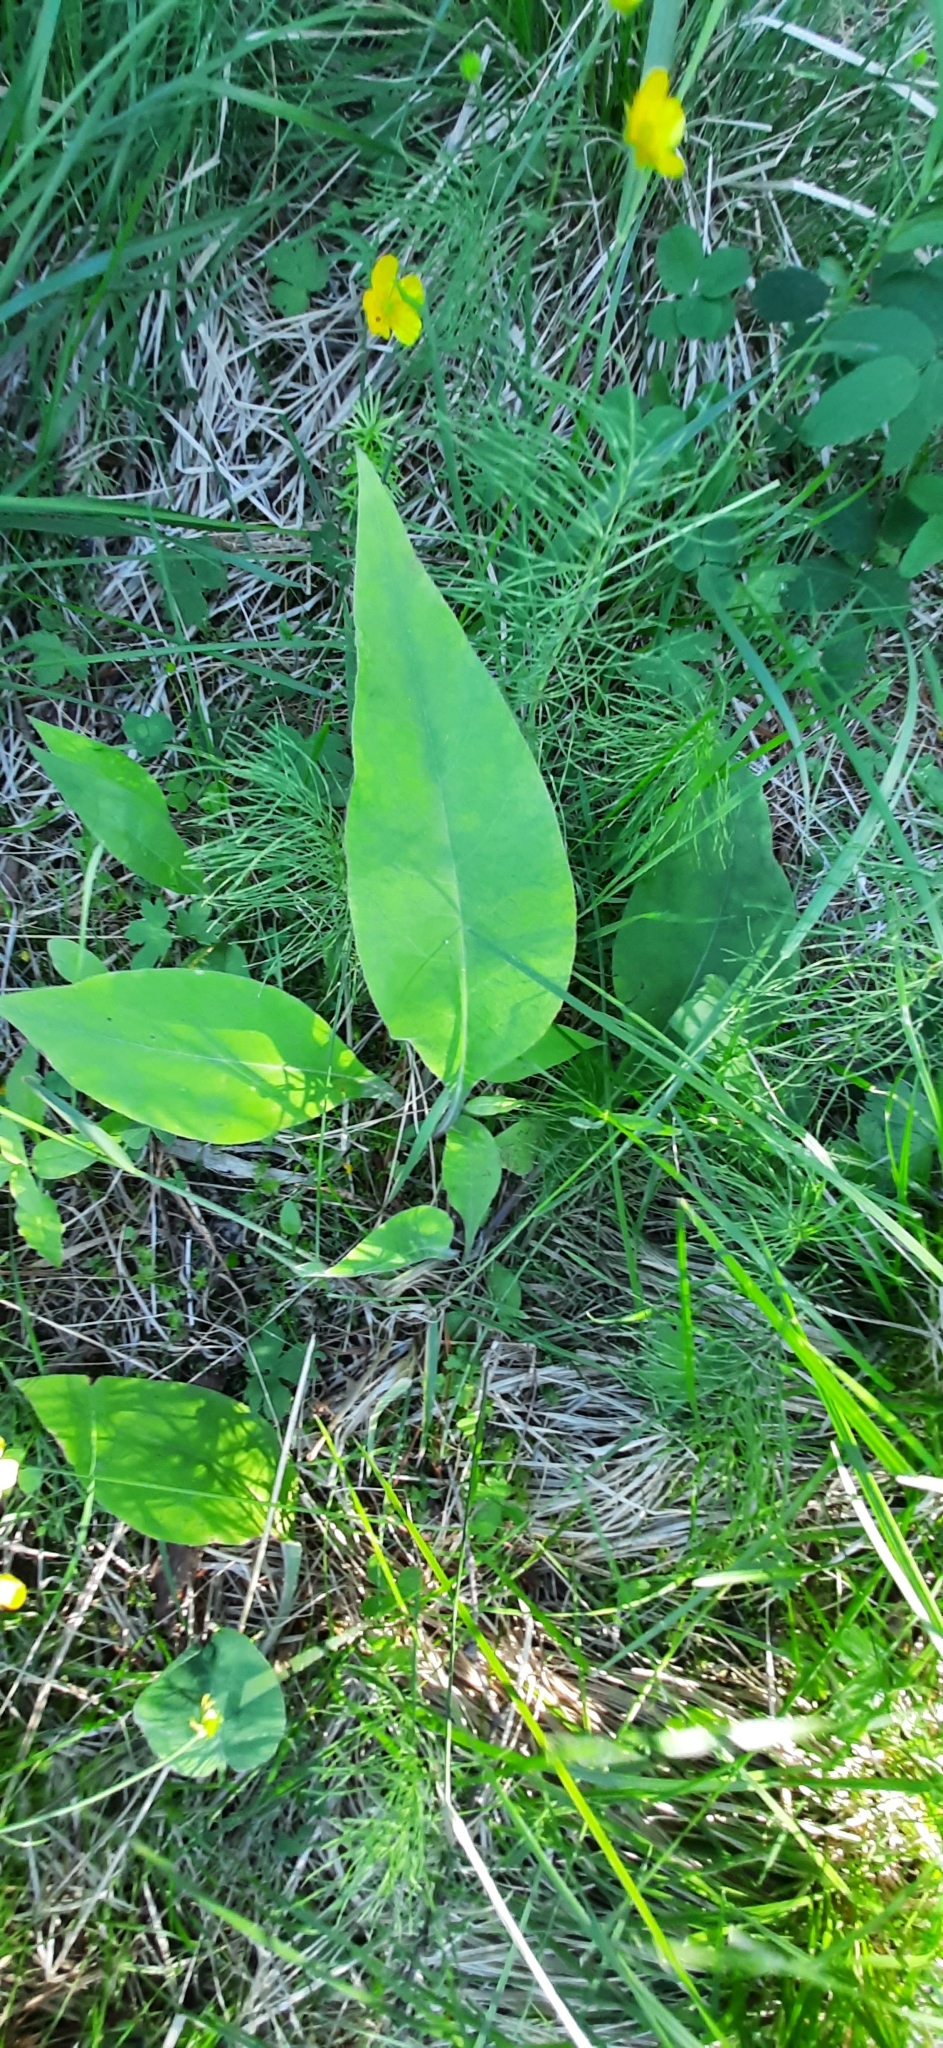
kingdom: Plantae
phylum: Tracheophyta
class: Magnoliopsida
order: Boraginales
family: Boraginaceae
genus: Pulmonaria
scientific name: Pulmonaria mollis
